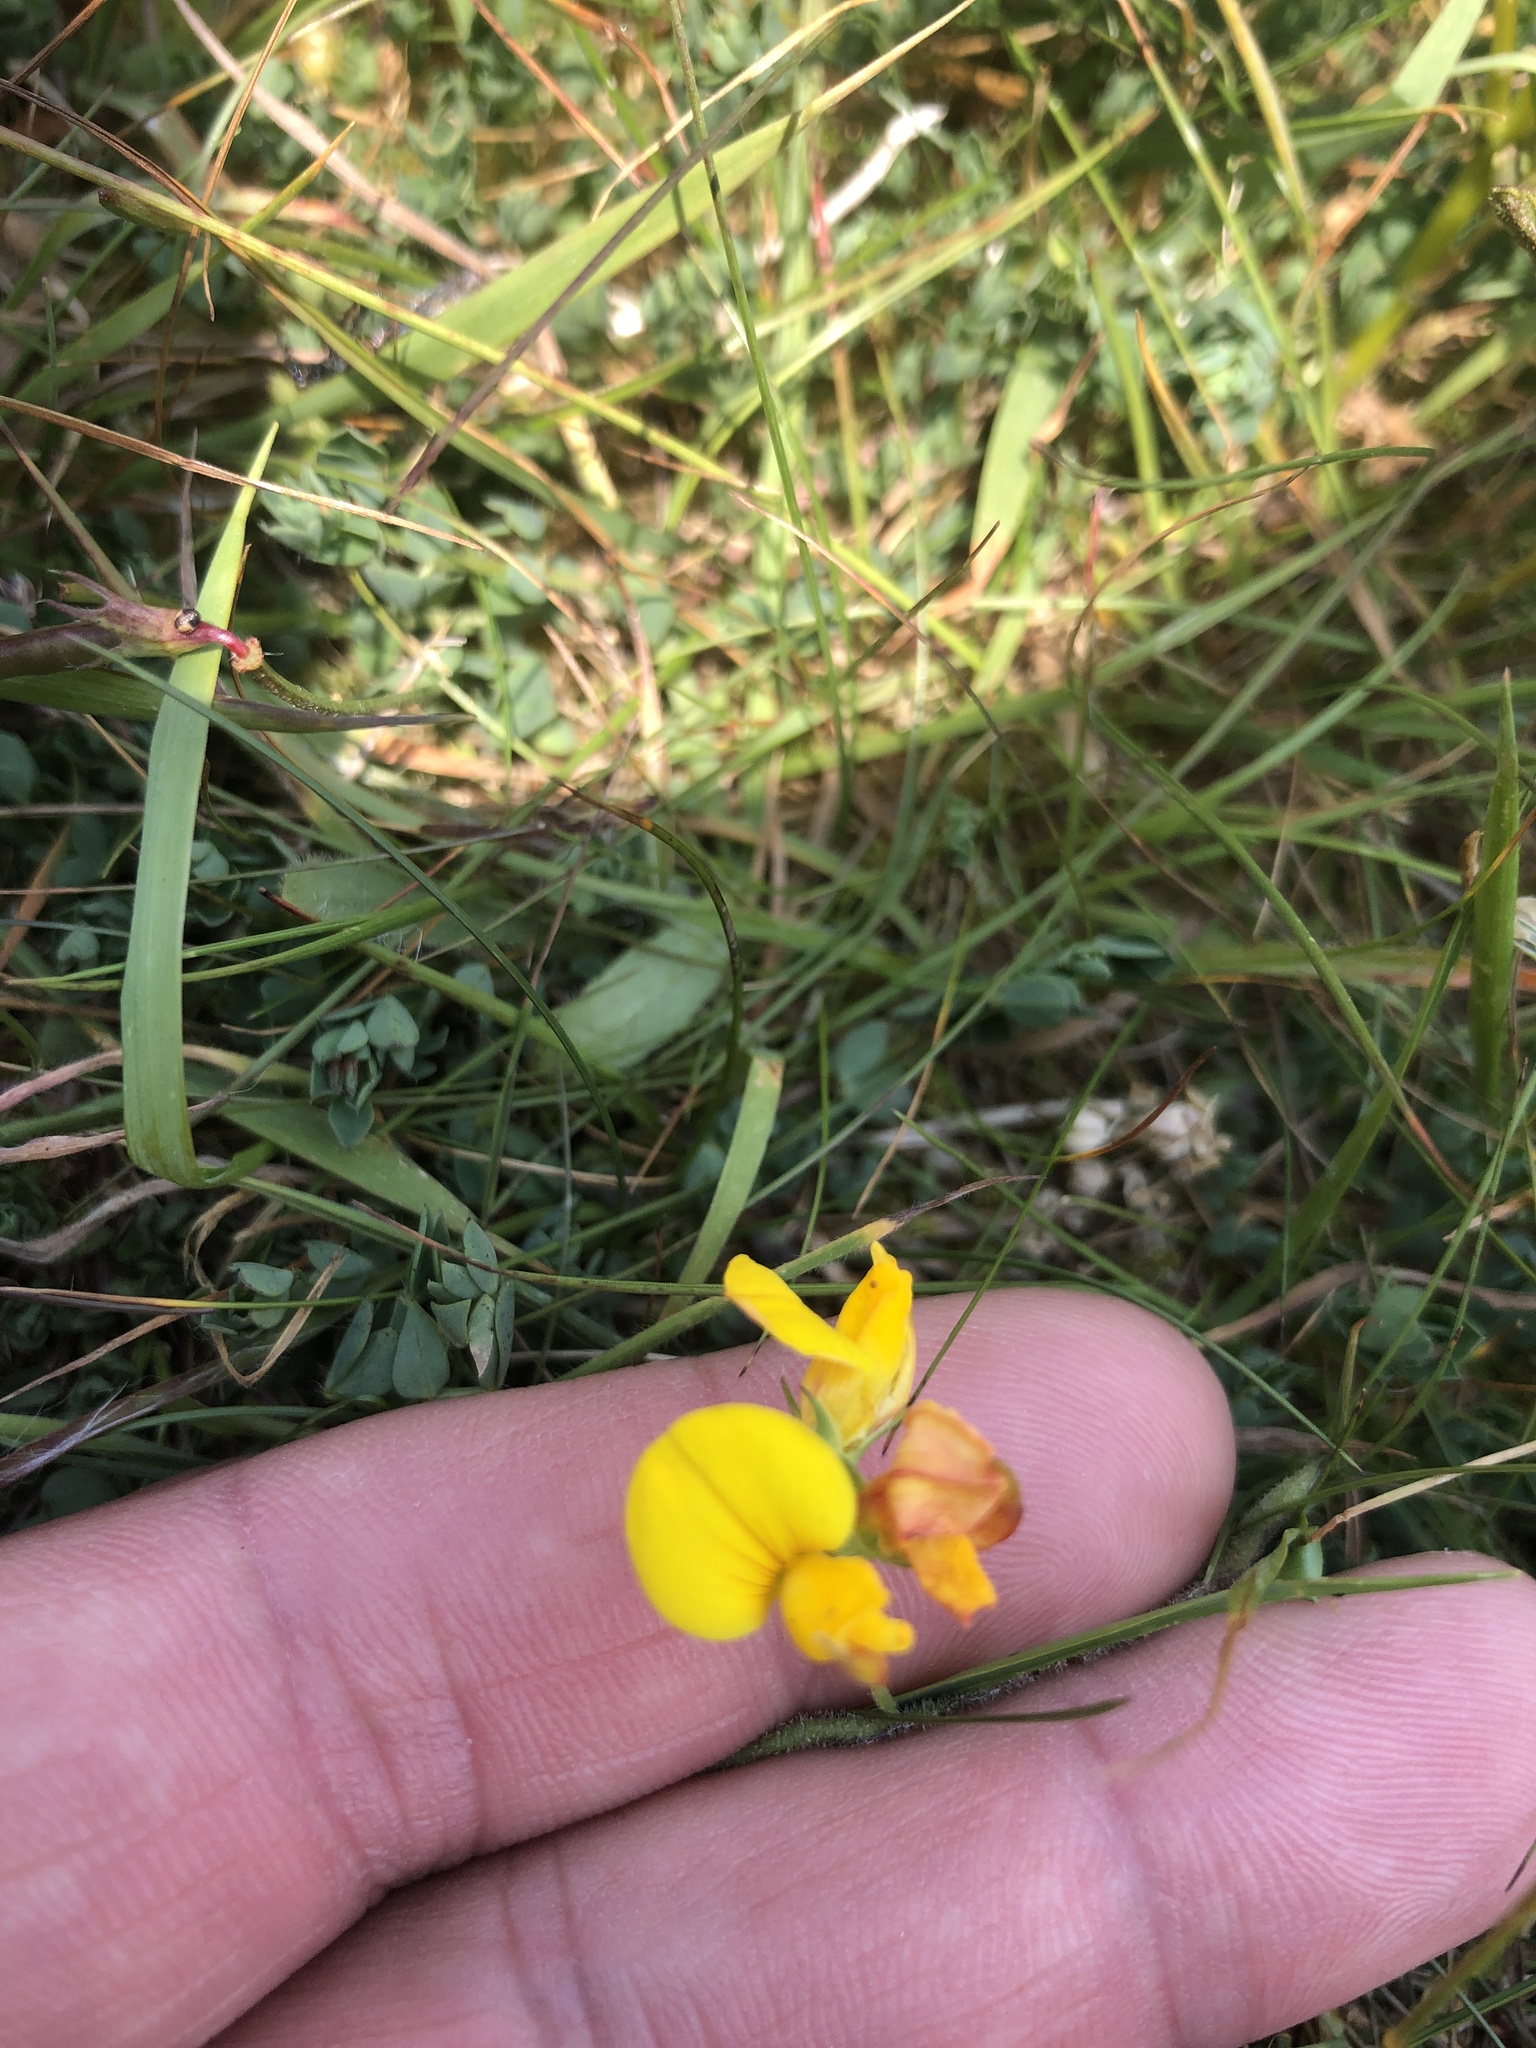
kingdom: Plantae
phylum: Tracheophyta
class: Magnoliopsida
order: Fabales
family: Fabaceae
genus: Lotus
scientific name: Lotus corniculatus
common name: Common bird's-foot-trefoil
